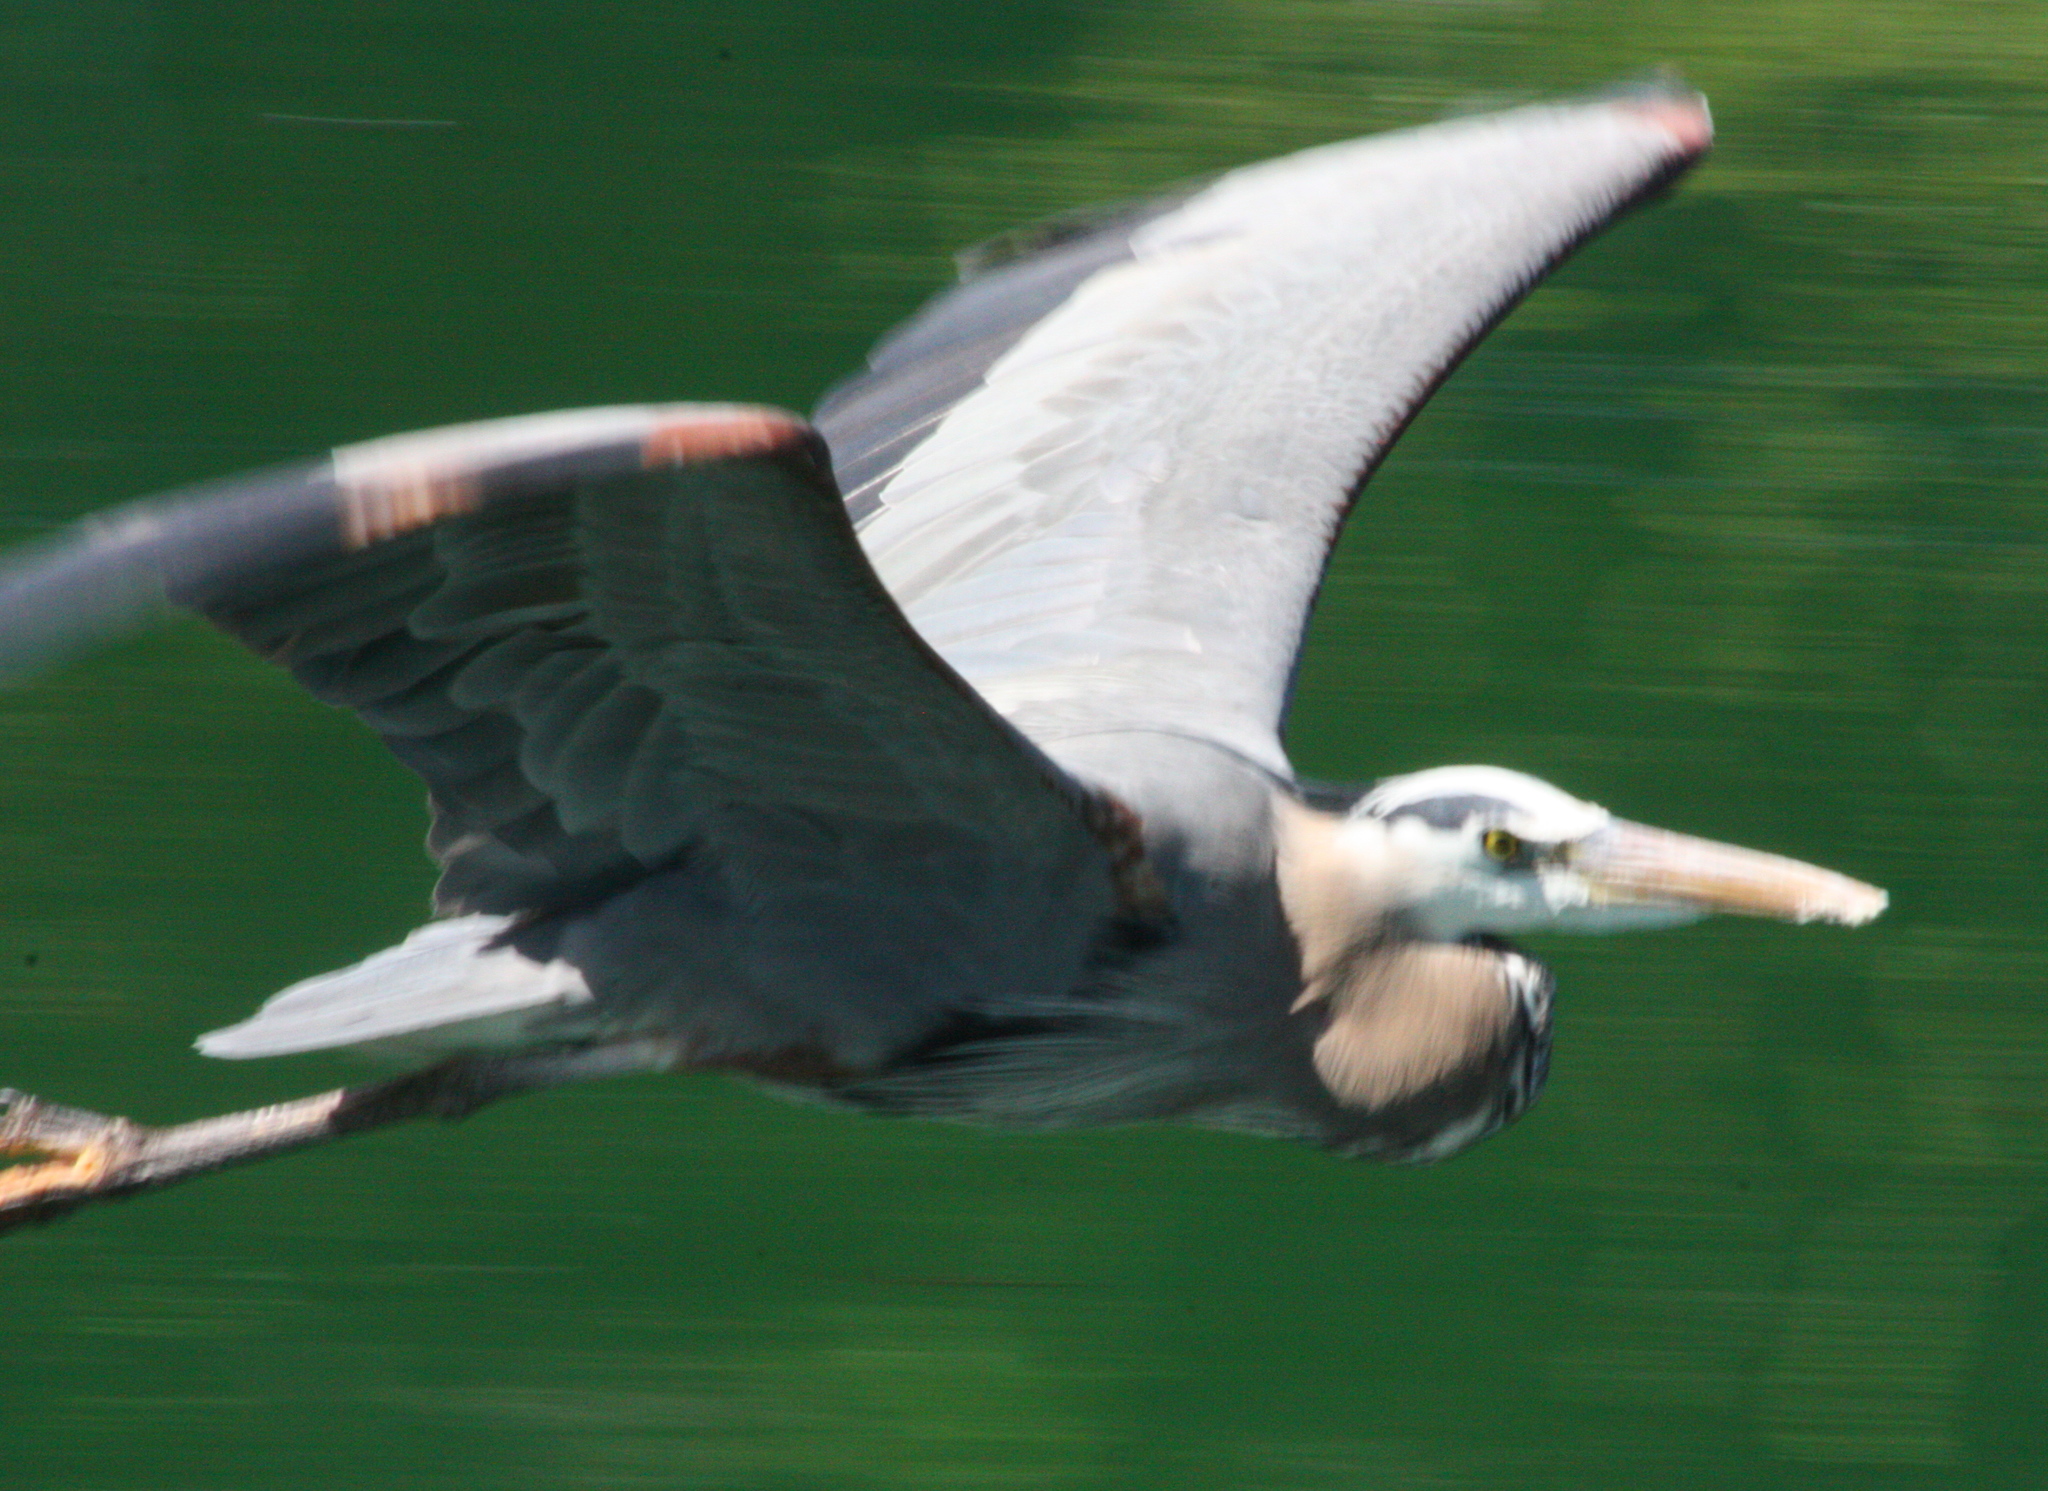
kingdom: Animalia
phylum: Chordata
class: Aves
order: Pelecaniformes
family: Ardeidae
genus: Ardea
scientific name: Ardea herodias
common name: Great blue heron
